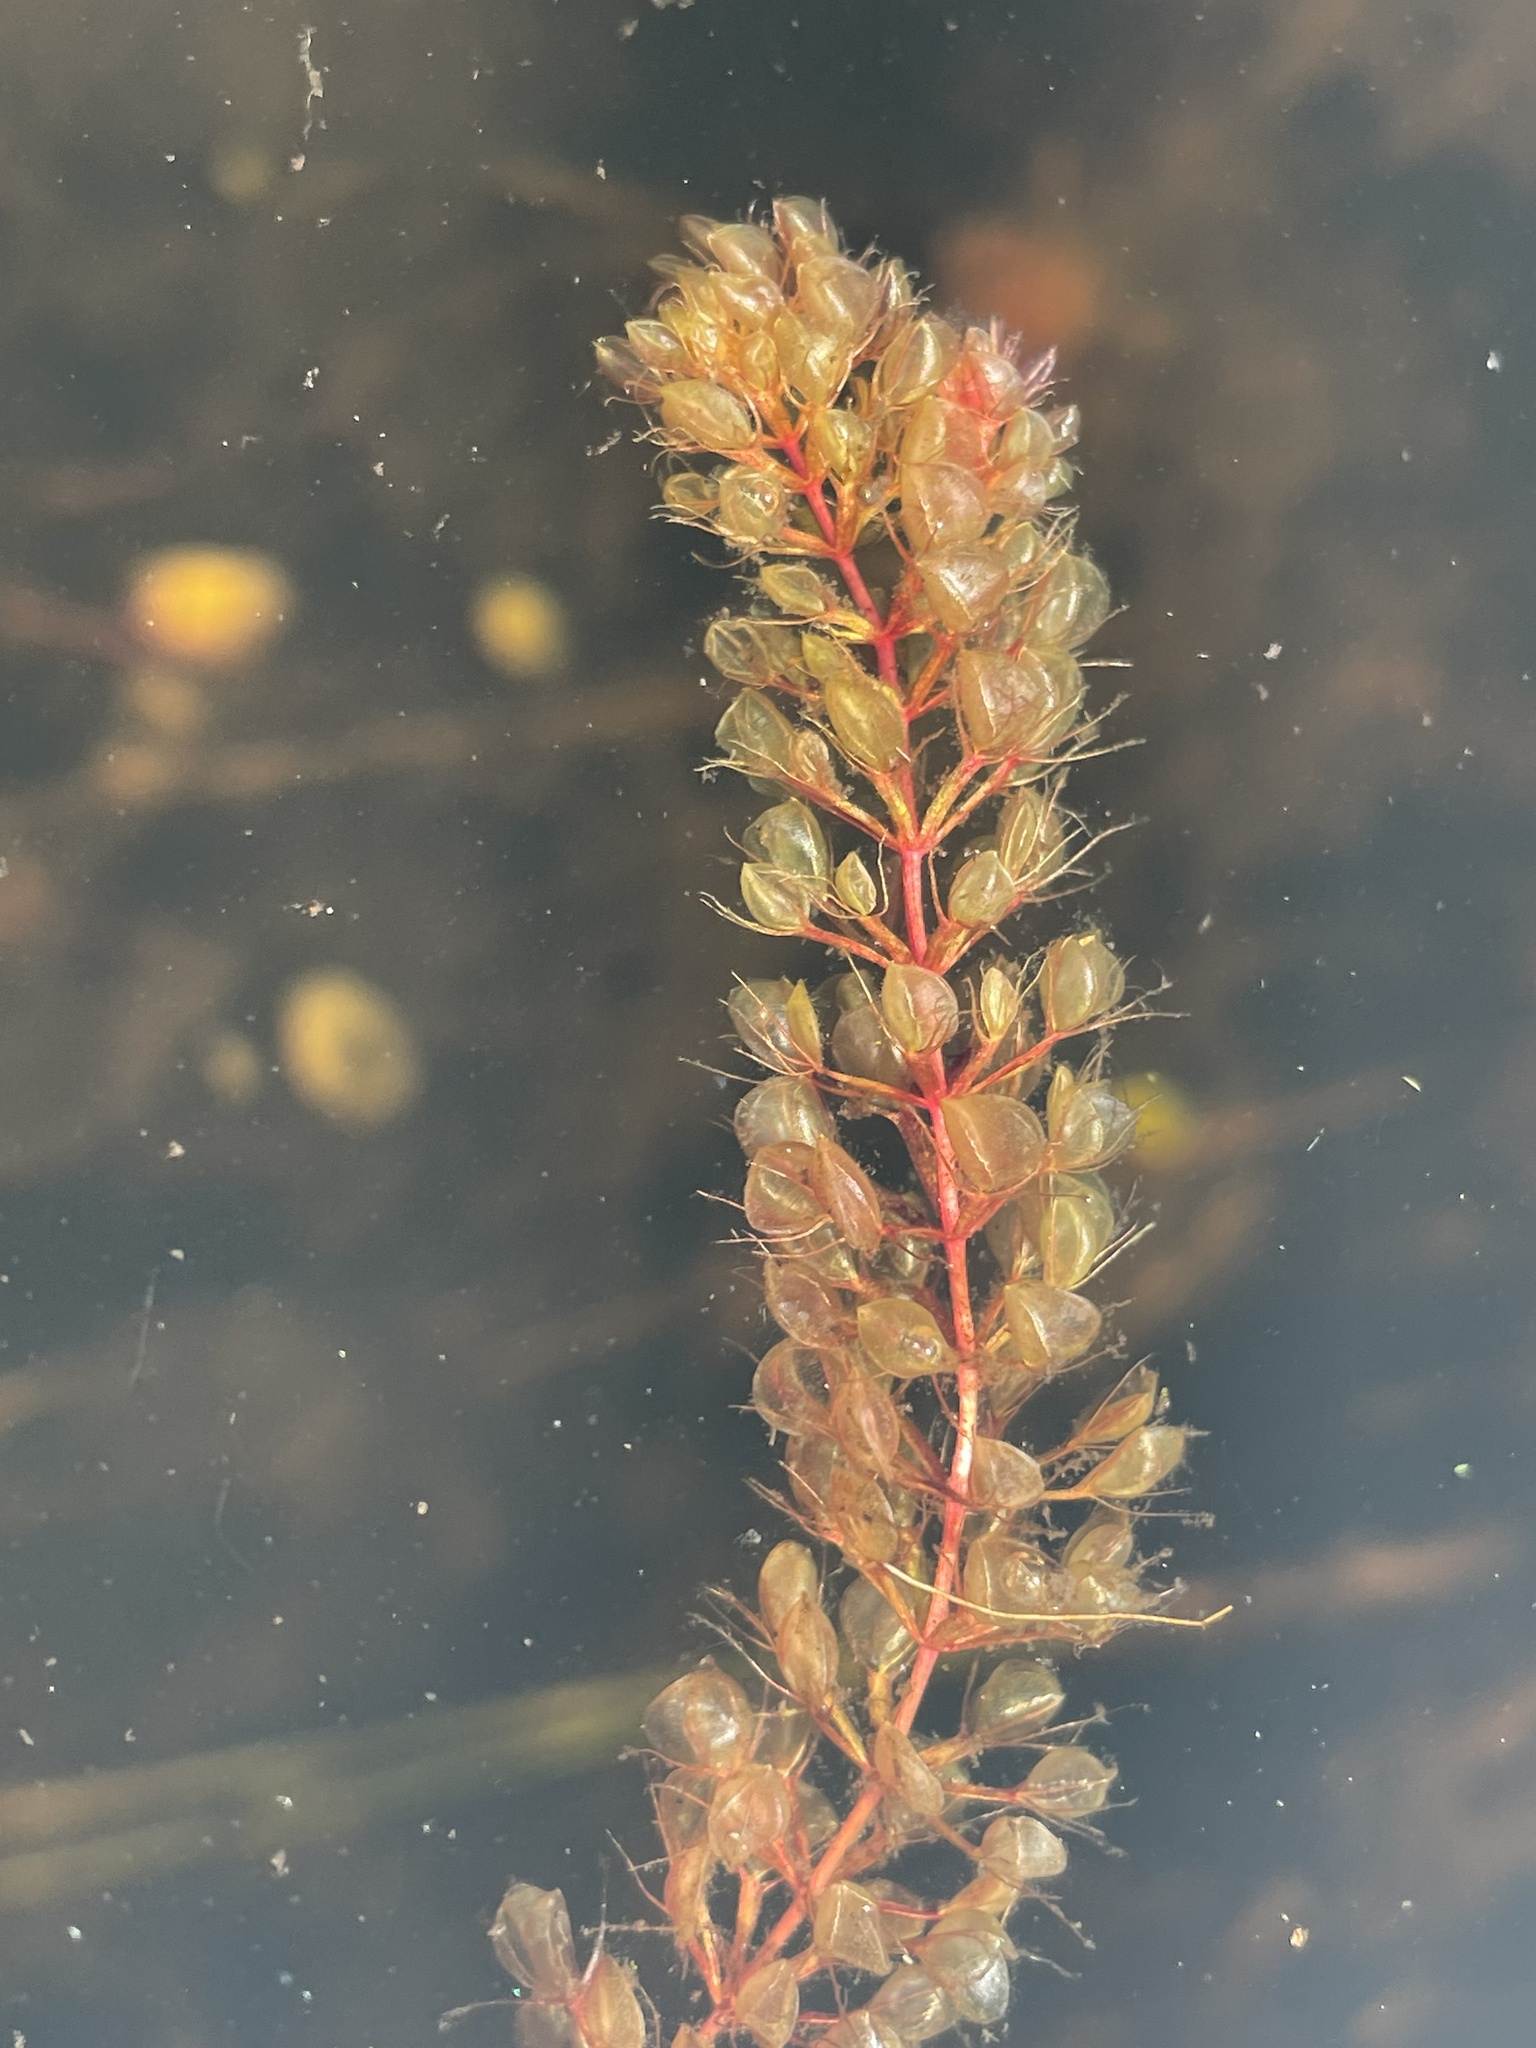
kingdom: Plantae
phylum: Tracheophyta
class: Magnoliopsida
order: Caryophyllales
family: Droseraceae
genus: Aldrovanda
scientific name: Aldrovanda vesiculosa
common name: Waterwheel plant
